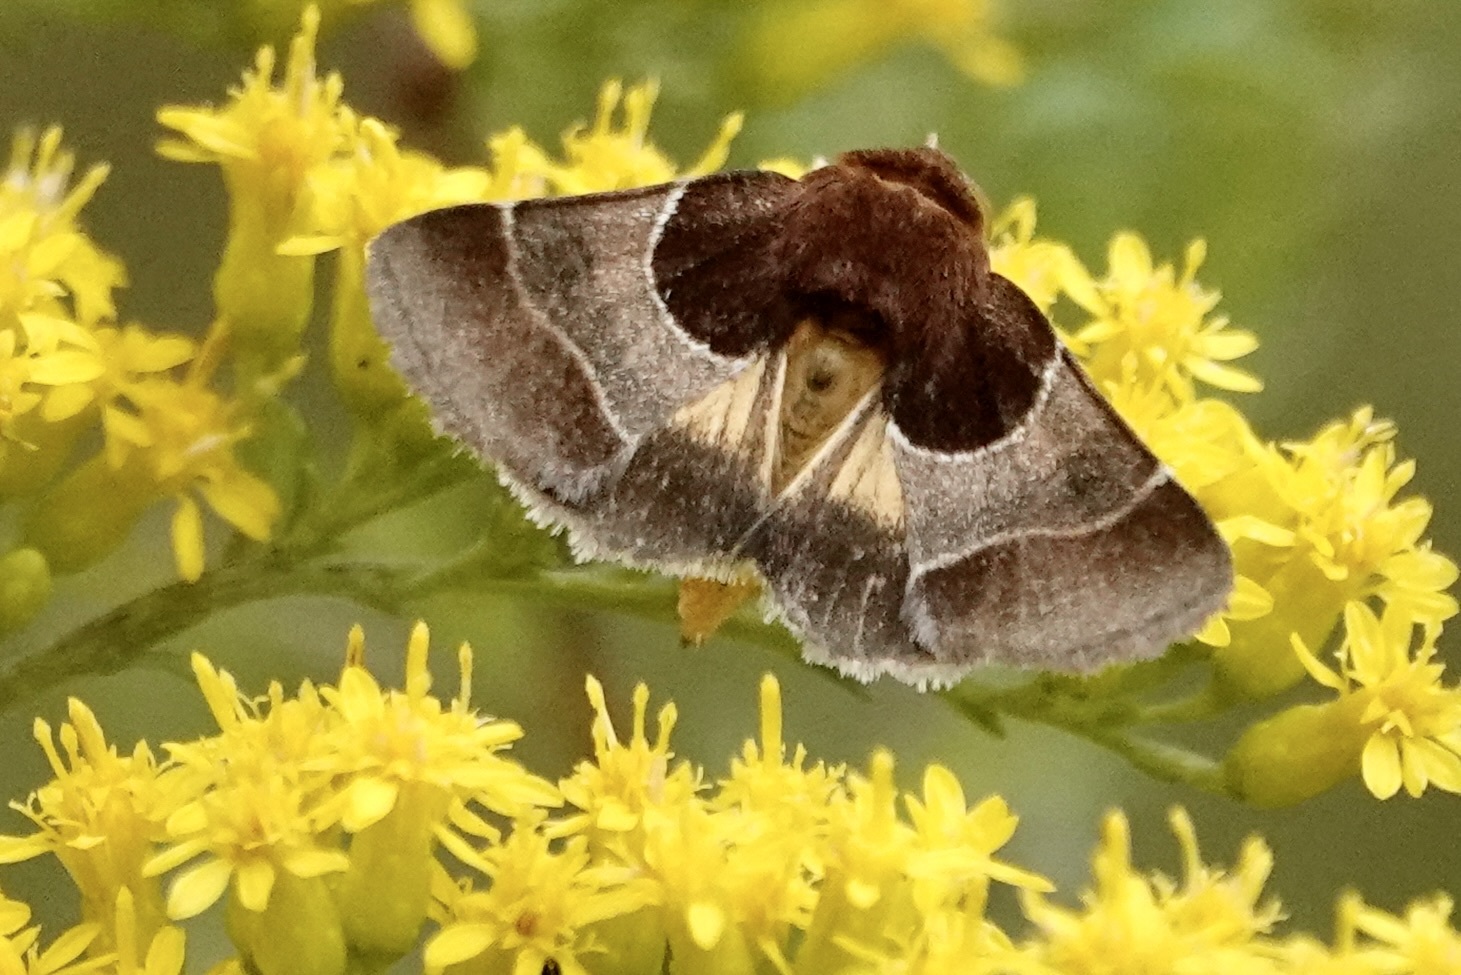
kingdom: Animalia
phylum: Arthropoda
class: Insecta
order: Lepidoptera
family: Noctuidae
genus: Schinia
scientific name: Schinia arcigera
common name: Arcigera flower moth
